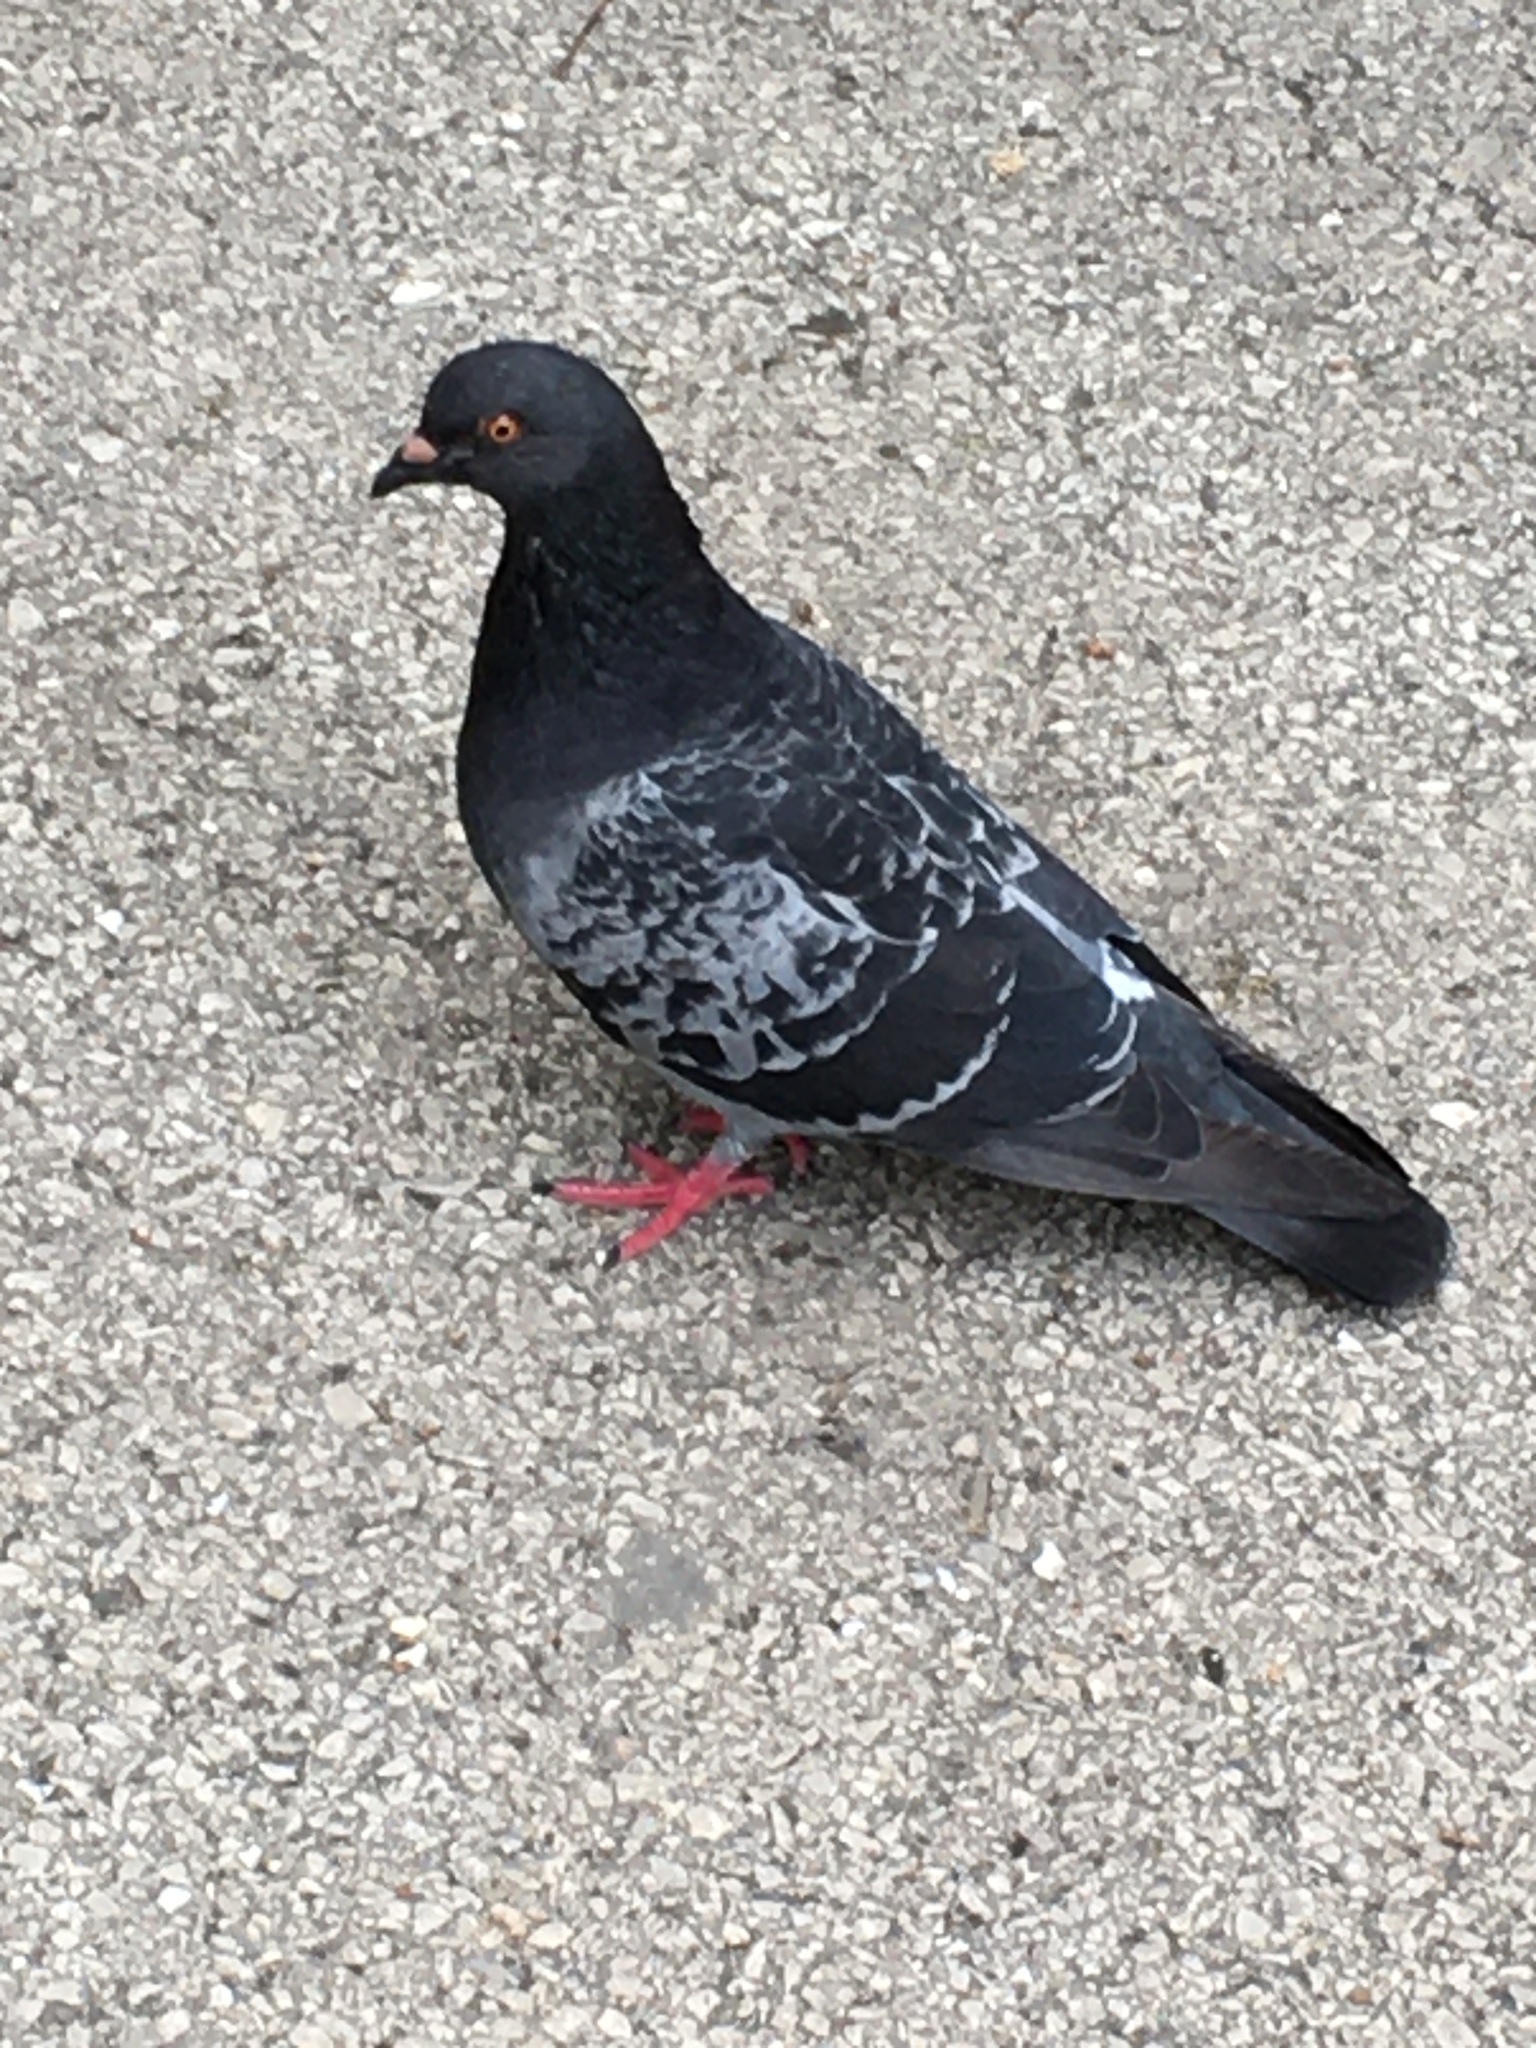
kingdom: Animalia
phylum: Chordata
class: Aves
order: Columbiformes
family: Columbidae
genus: Columba
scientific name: Columba livia
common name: Rock pigeon
